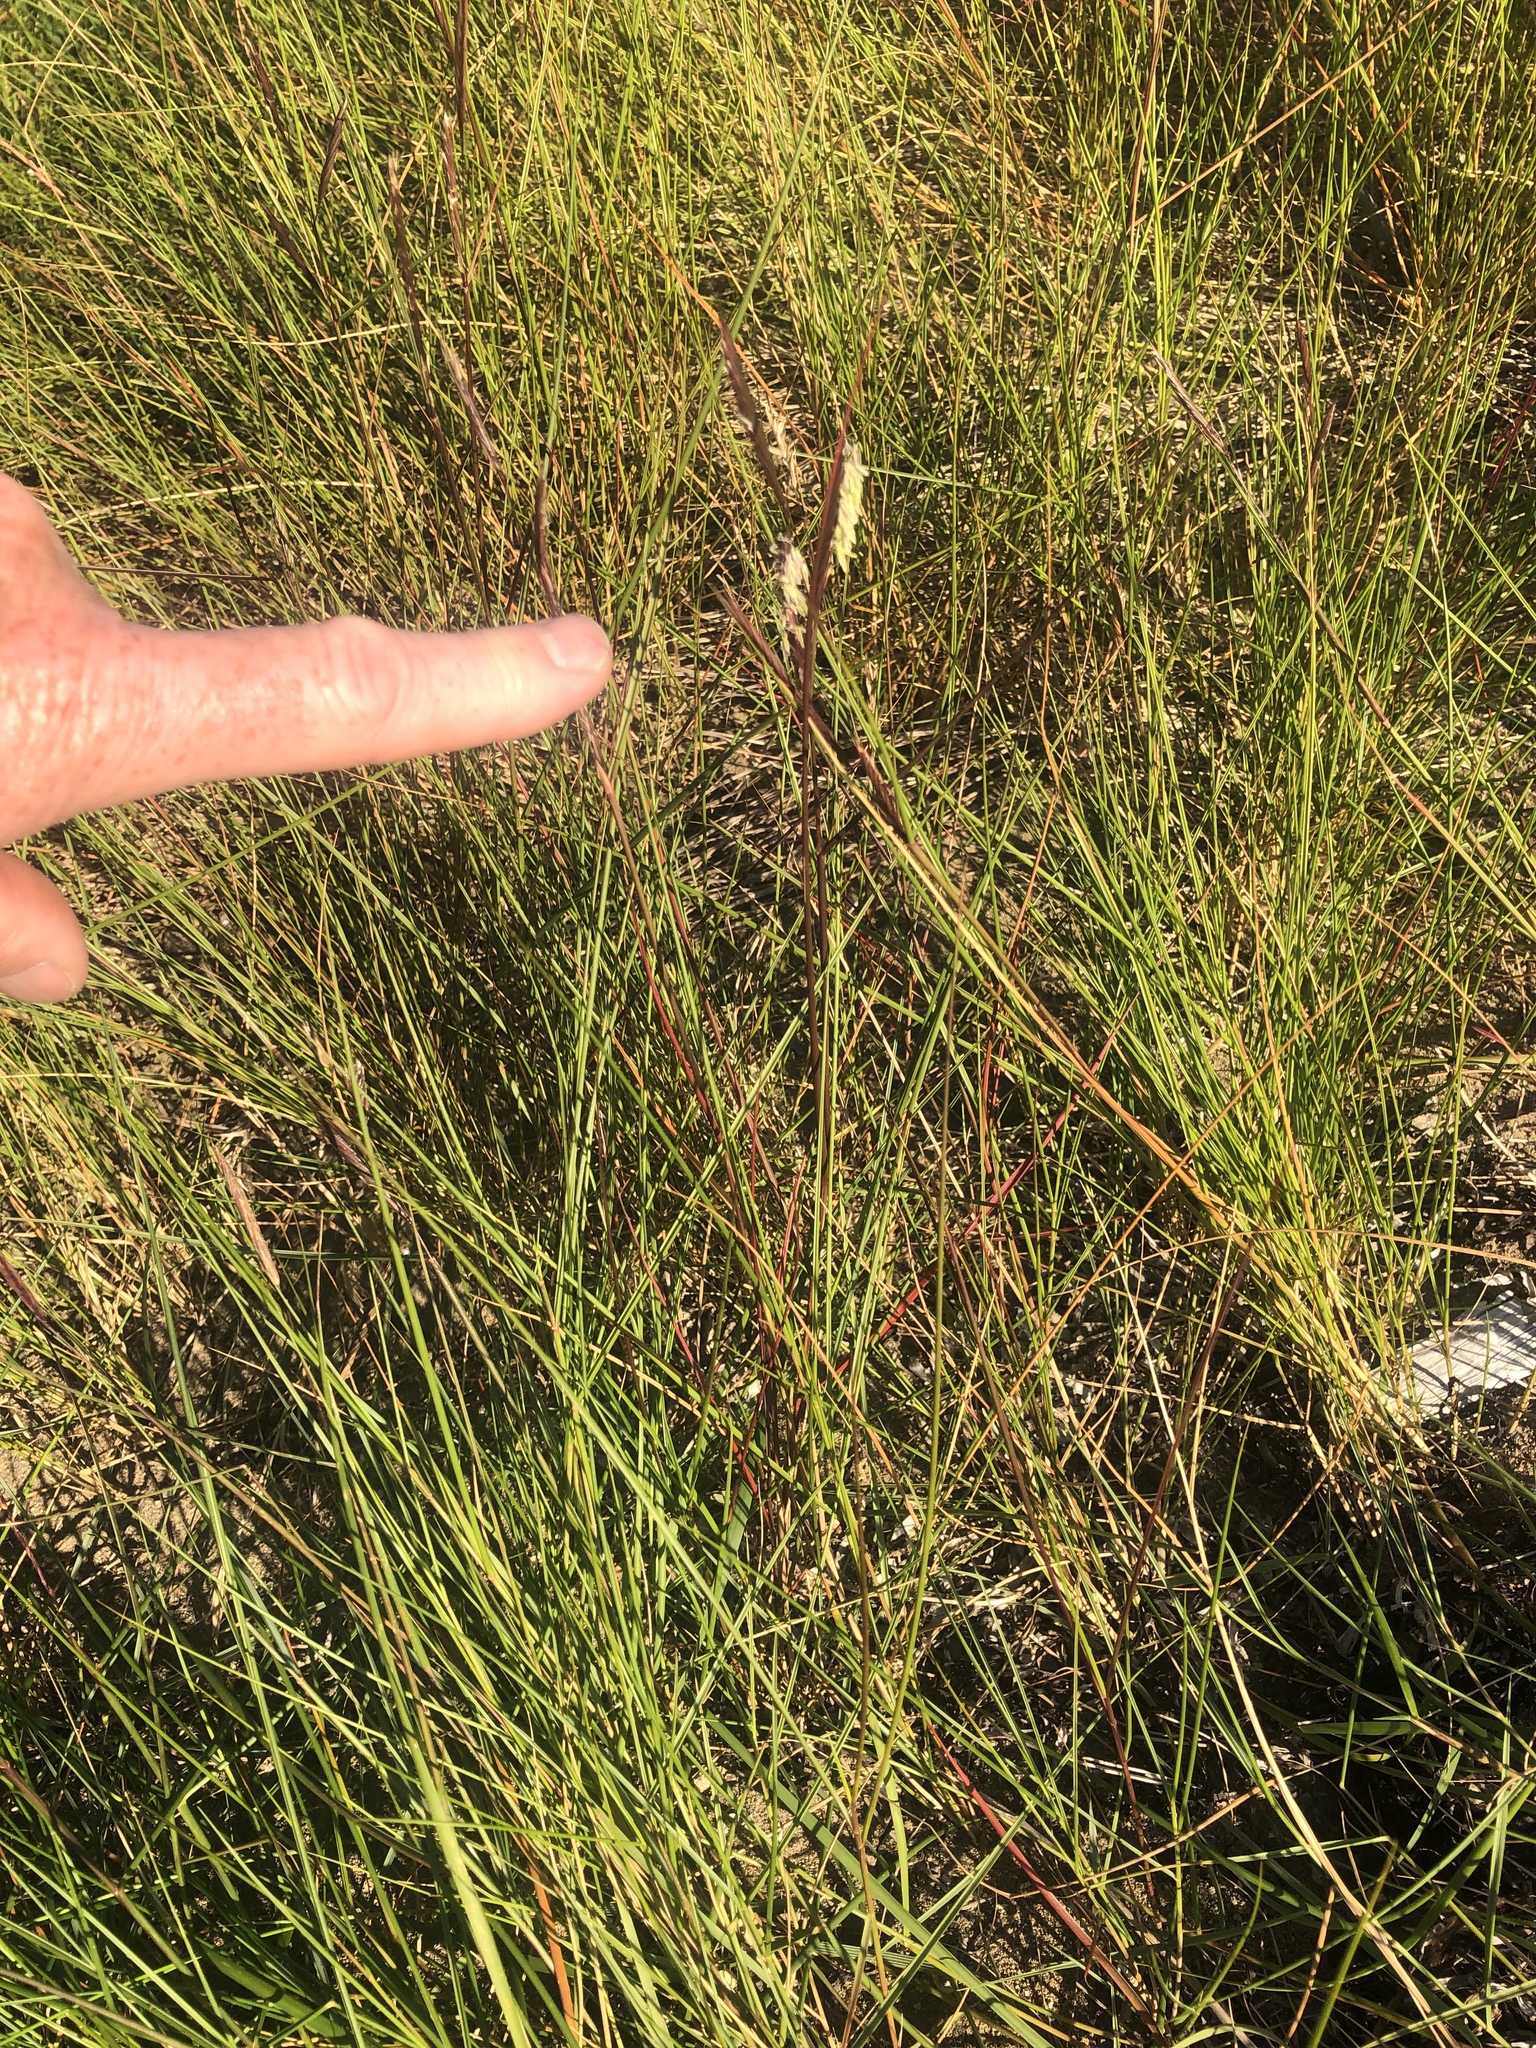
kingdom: Plantae
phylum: Tracheophyta
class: Liliopsida
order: Poales
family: Poaceae
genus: Sporobolus
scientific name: Sporobolus pumilus
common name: Highwater grass
